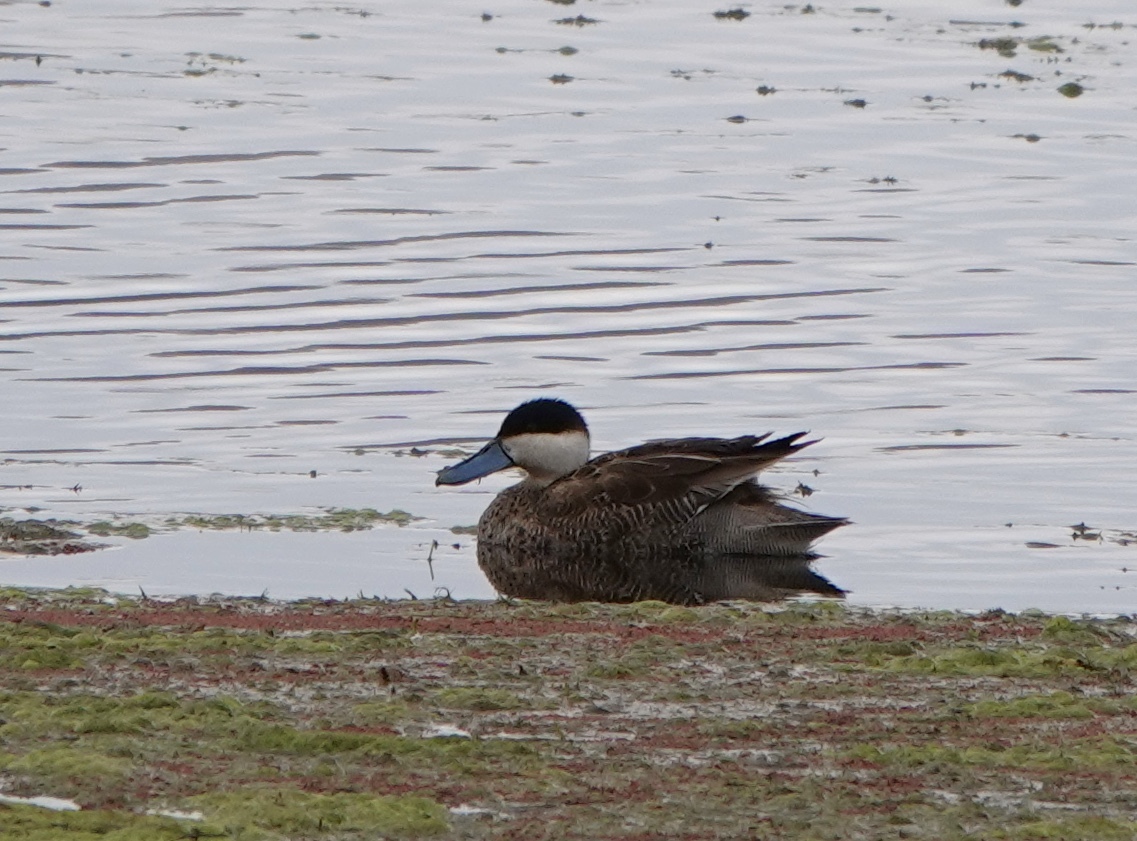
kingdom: Animalia
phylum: Chordata
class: Aves
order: Anseriformes
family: Anatidae
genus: Spatula
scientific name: Spatula puna
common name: Puna teal
